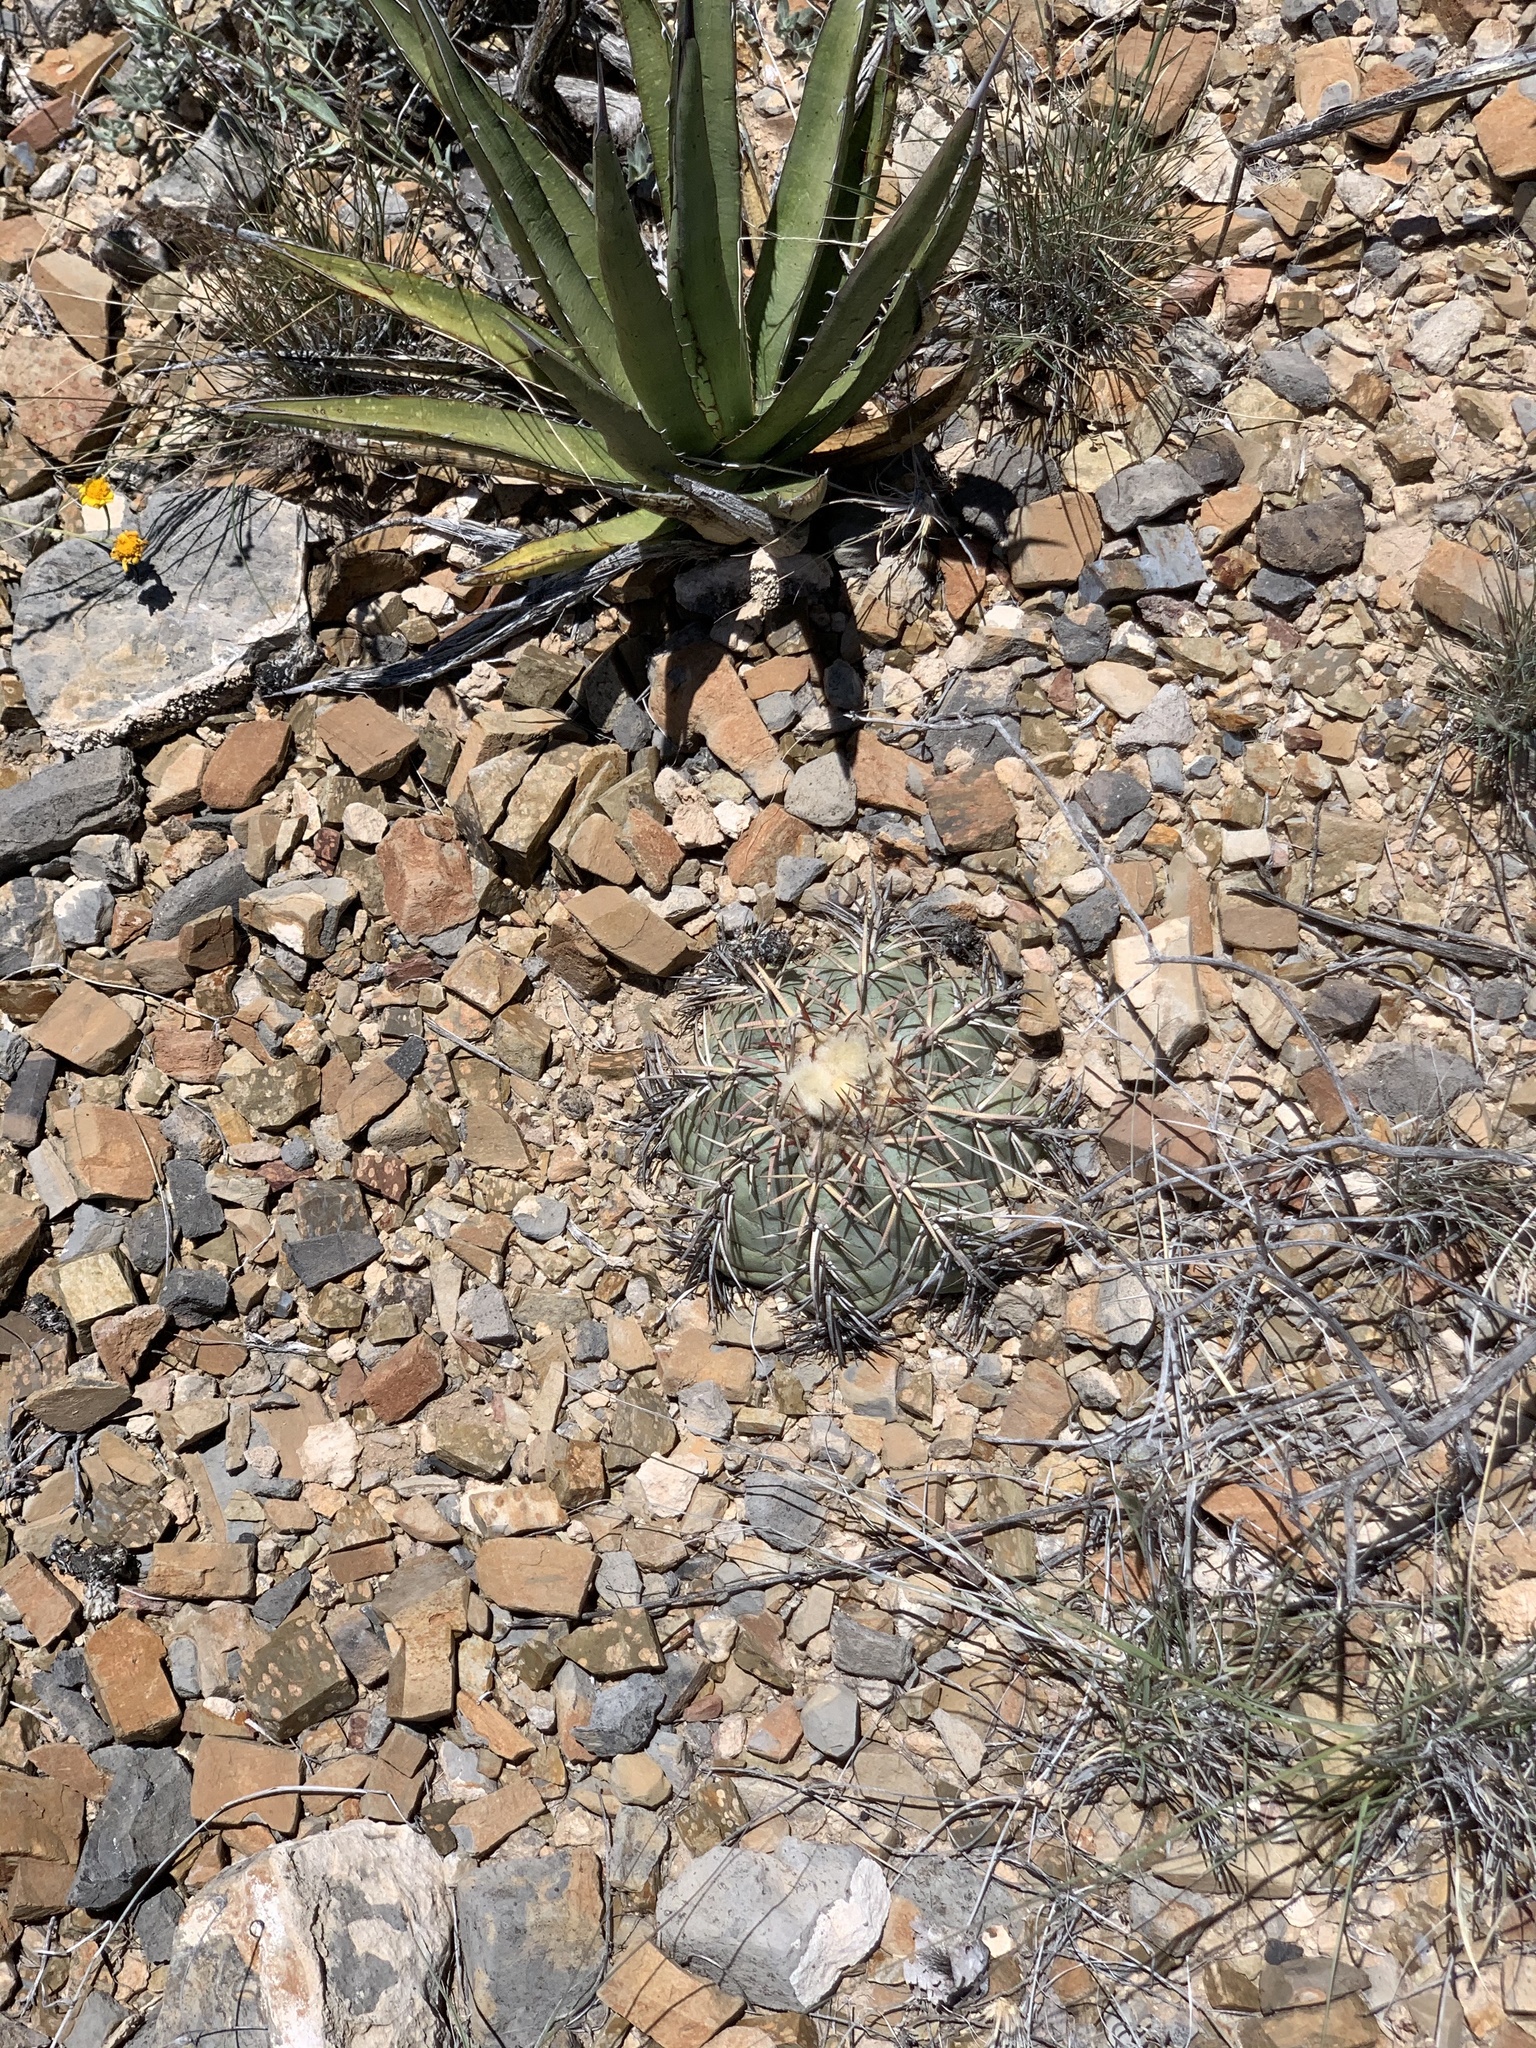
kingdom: Plantae
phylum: Tracheophyta
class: Magnoliopsida
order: Caryophyllales
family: Cactaceae
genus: Echinocactus
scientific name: Echinocactus horizonthalonius
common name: Devilshead
